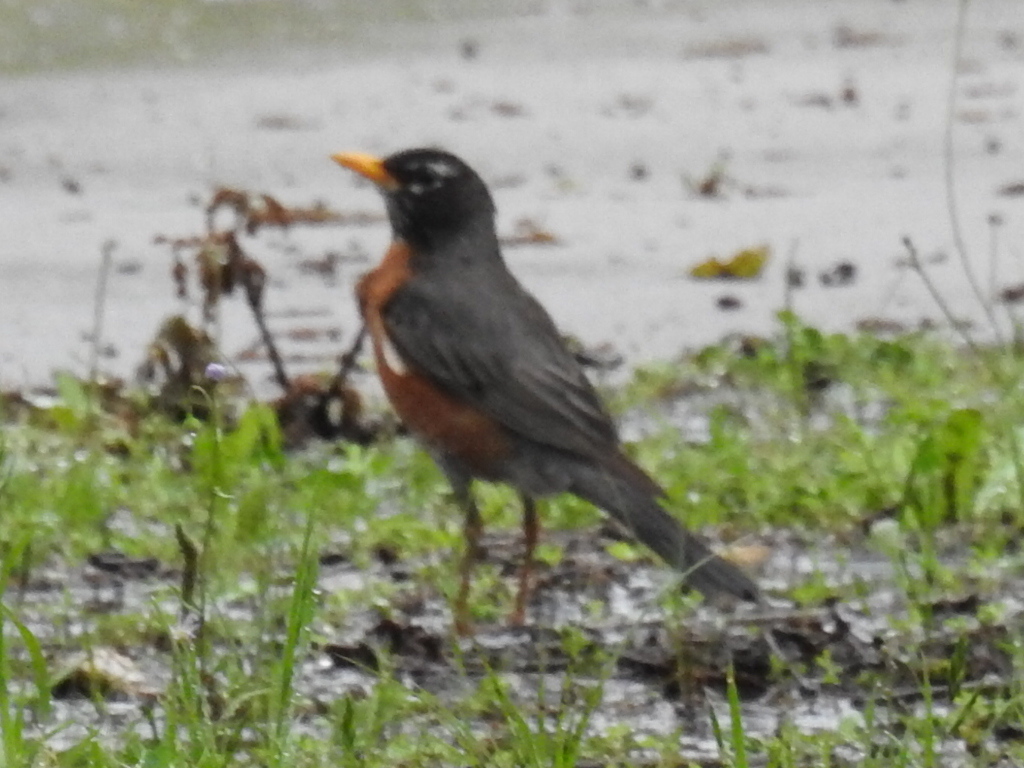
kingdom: Animalia
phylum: Chordata
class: Aves
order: Passeriformes
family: Turdidae
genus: Turdus
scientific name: Turdus migratorius
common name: American robin
